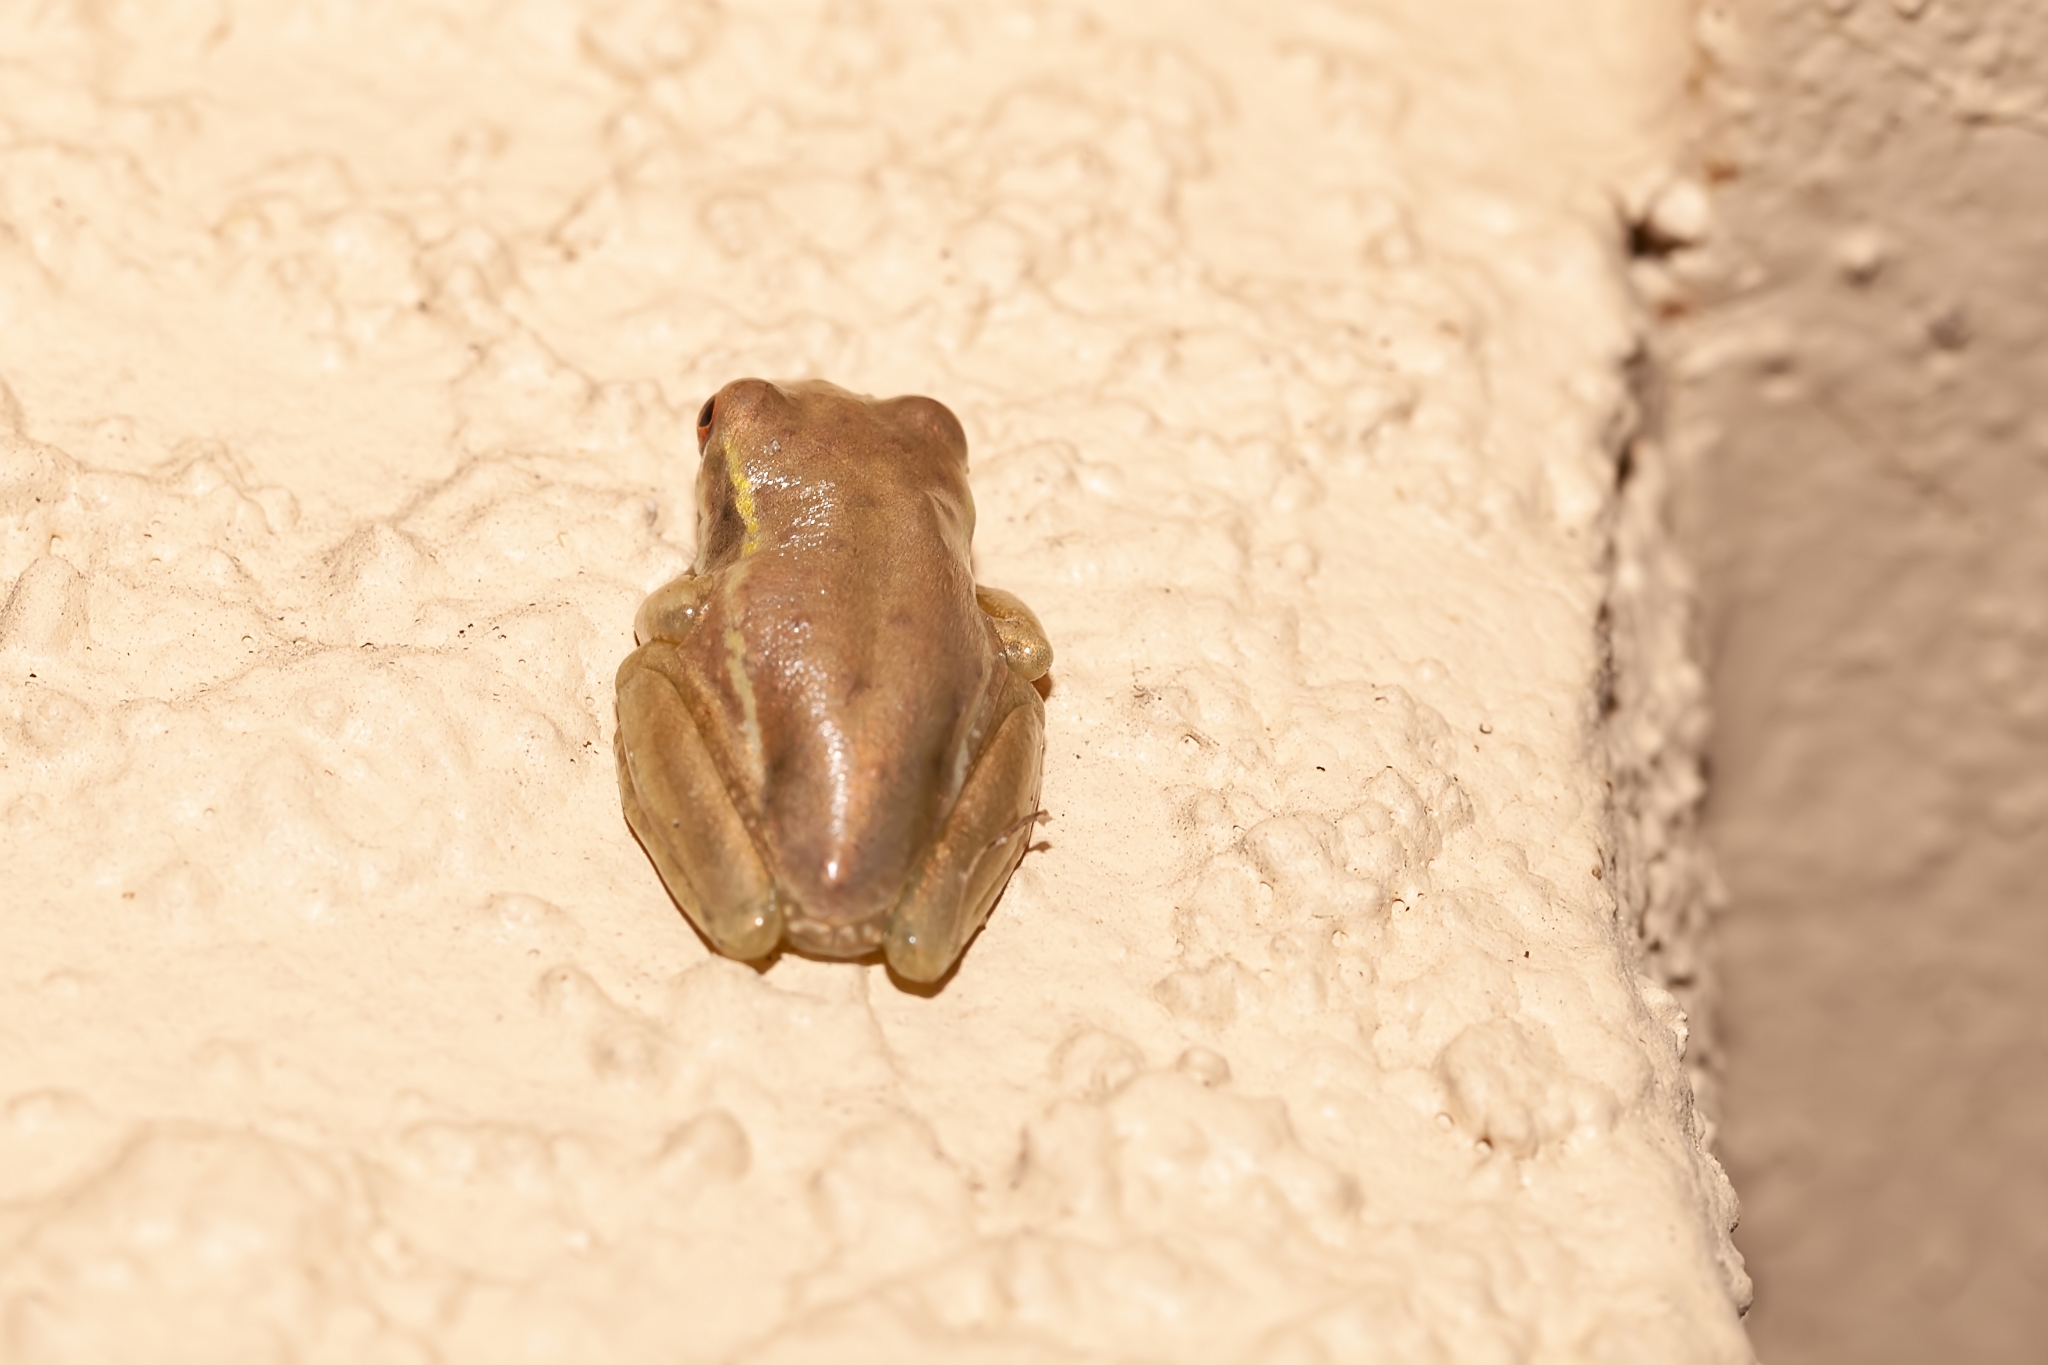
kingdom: Animalia
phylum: Chordata
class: Amphibia
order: Anura
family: Hylidae
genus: Osteopilus
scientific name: Osteopilus septentrionalis
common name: Cuban treefrog
